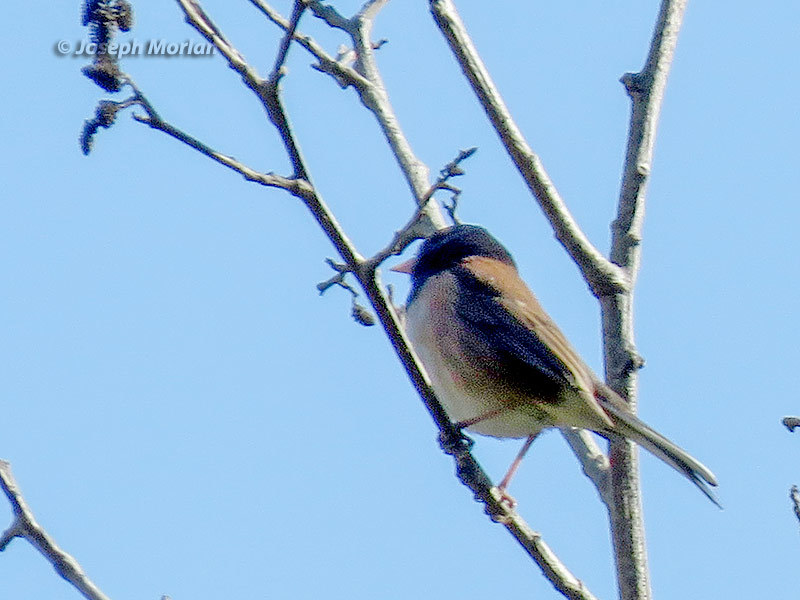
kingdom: Animalia
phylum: Chordata
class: Aves
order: Passeriformes
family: Passerellidae
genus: Junco
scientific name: Junco hyemalis
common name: Dark-eyed junco
